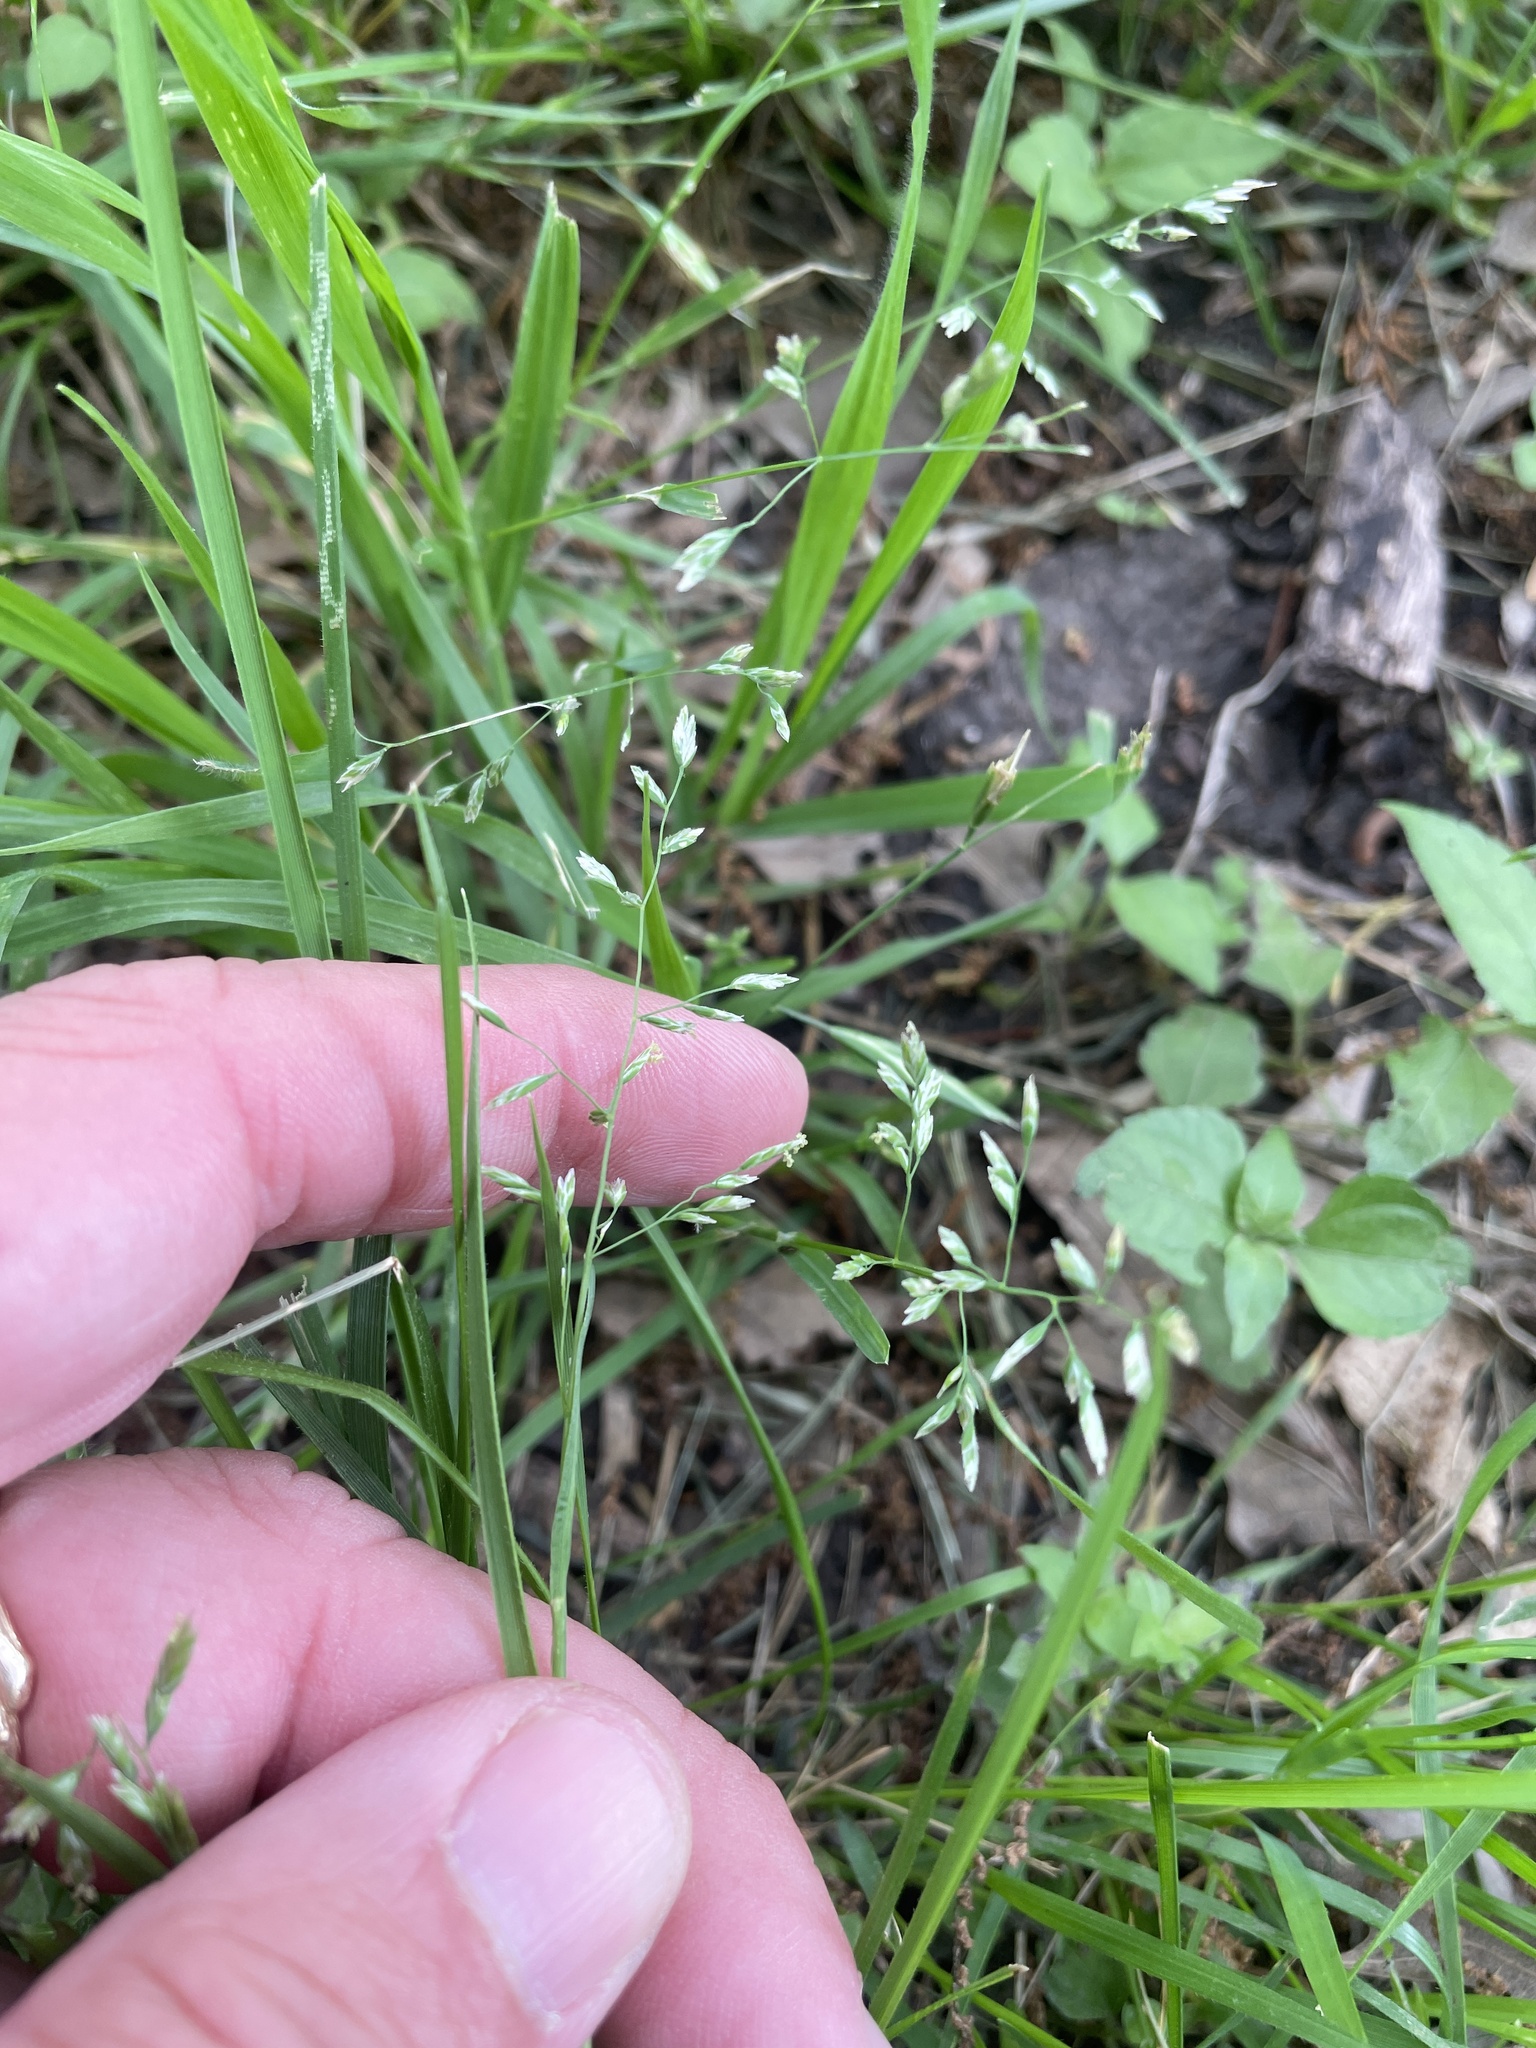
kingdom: Plantae
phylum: Tracheophyta
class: Liliopsida
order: Poales
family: Poaceae
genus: Poa
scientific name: Poa annua
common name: Annual bluegrass
